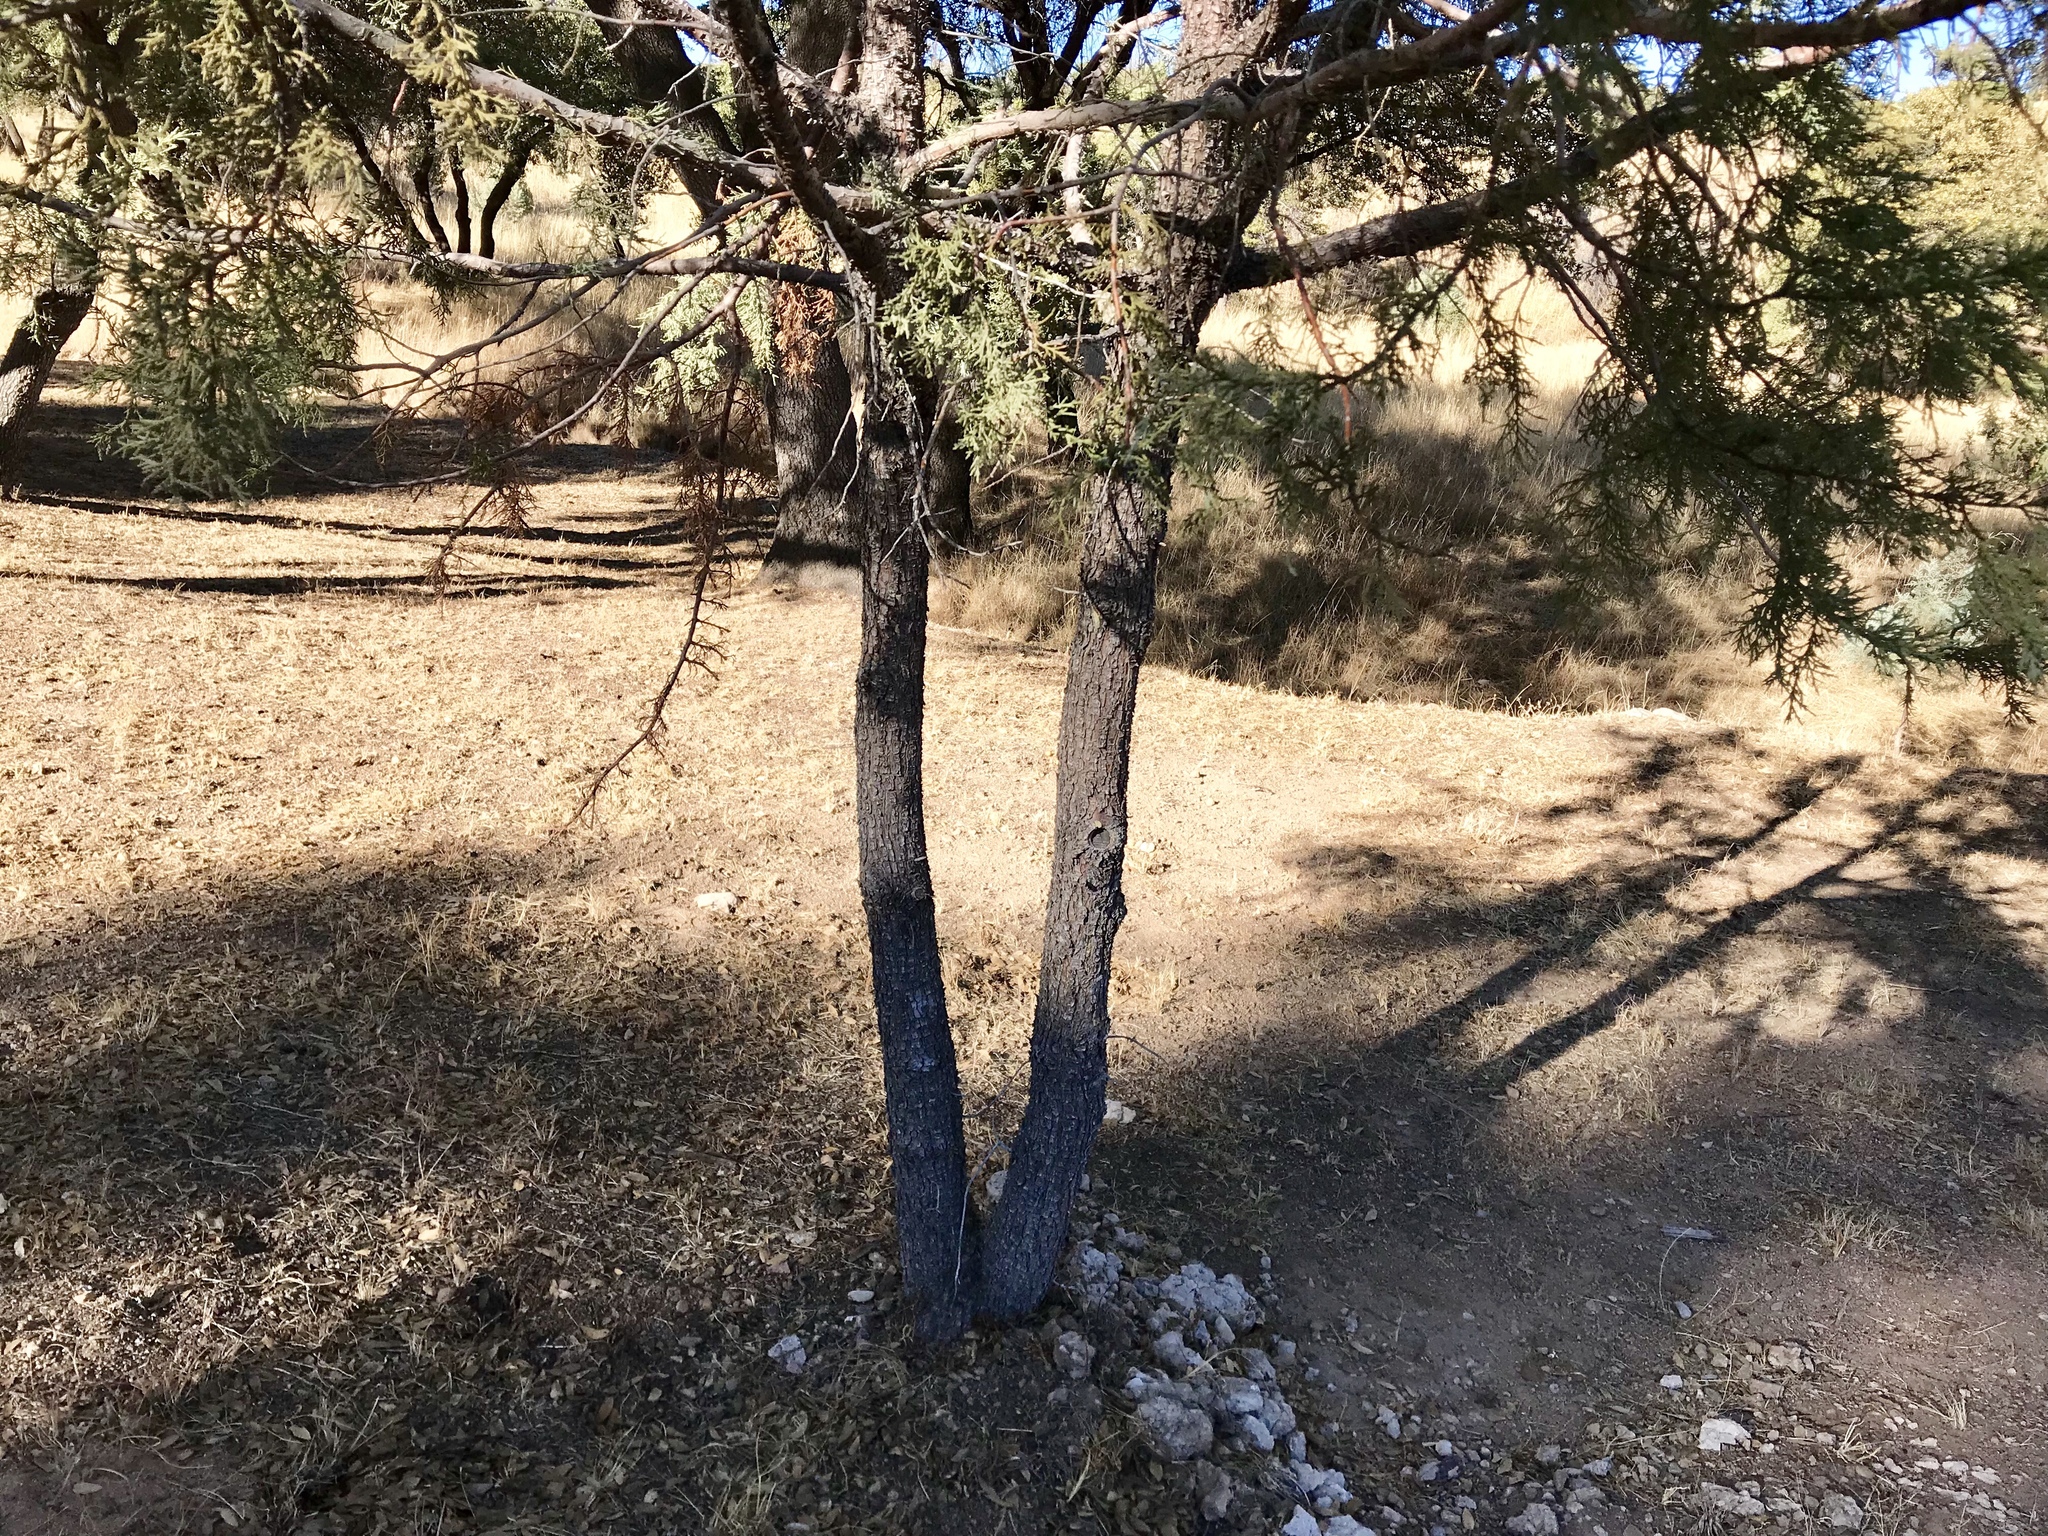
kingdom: Plantae
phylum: Tracheophyta
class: Pinopsida
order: Pinales
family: Cupressaceae
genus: Juniperus
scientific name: Juniperus deppeana
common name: Alligator juniper
